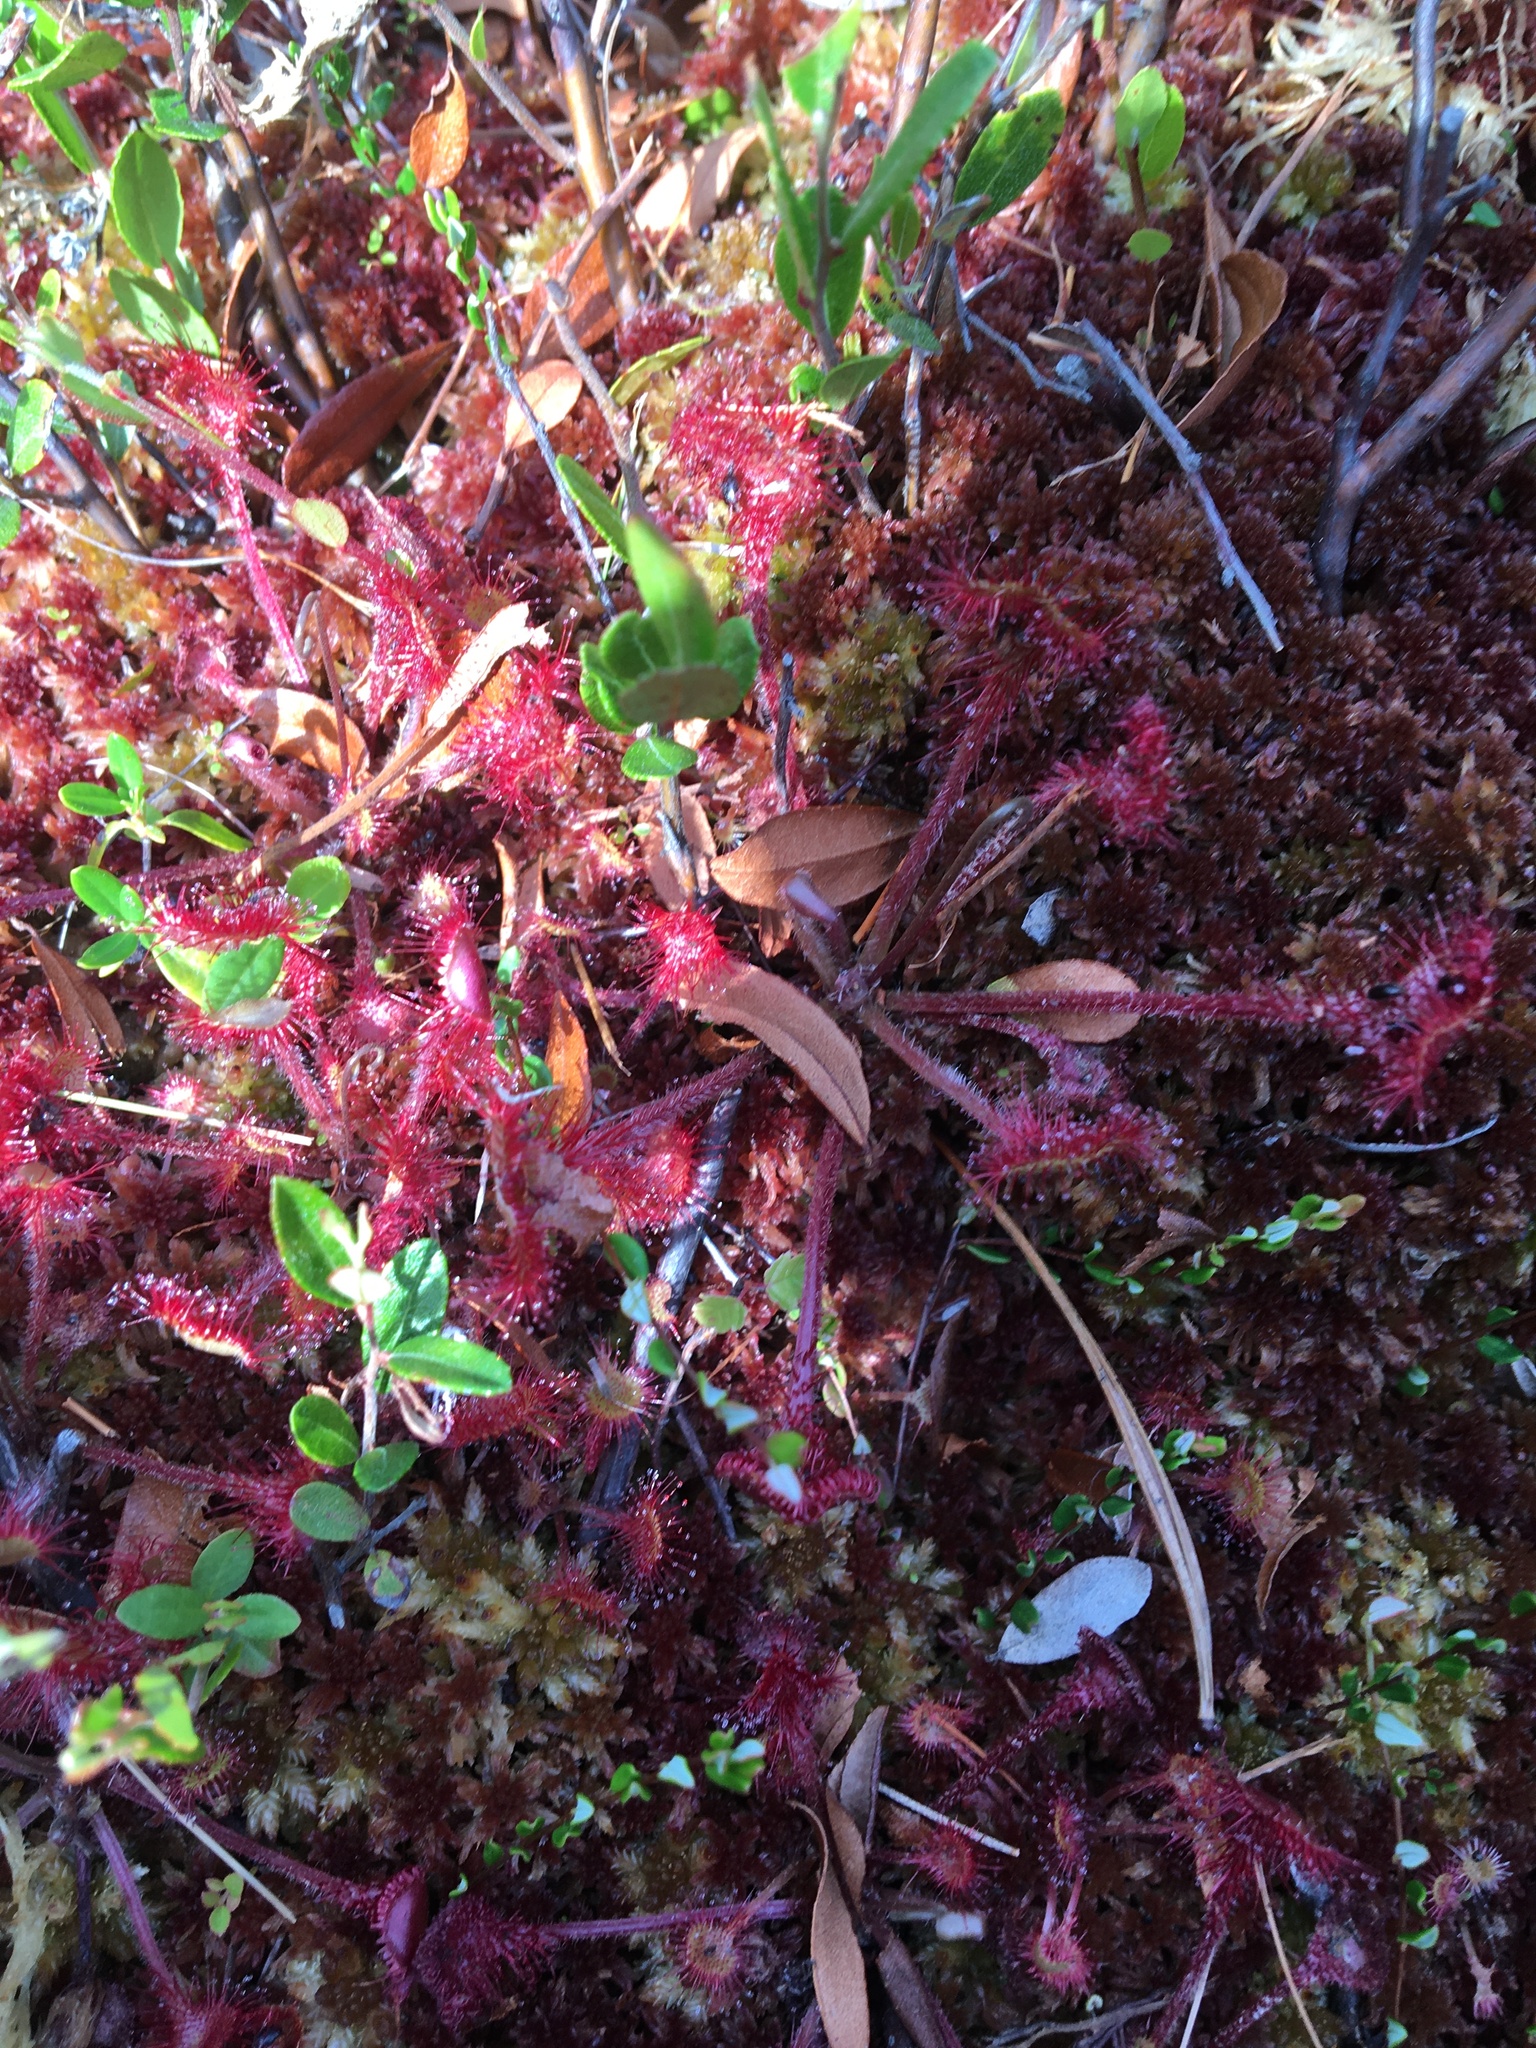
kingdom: Plantae
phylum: Tracheophyta
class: Magnoliopsida
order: Caryophyllales
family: Droseraceae
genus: Drosera
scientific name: Drosera rotundifolia
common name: Round-leaved sundew
